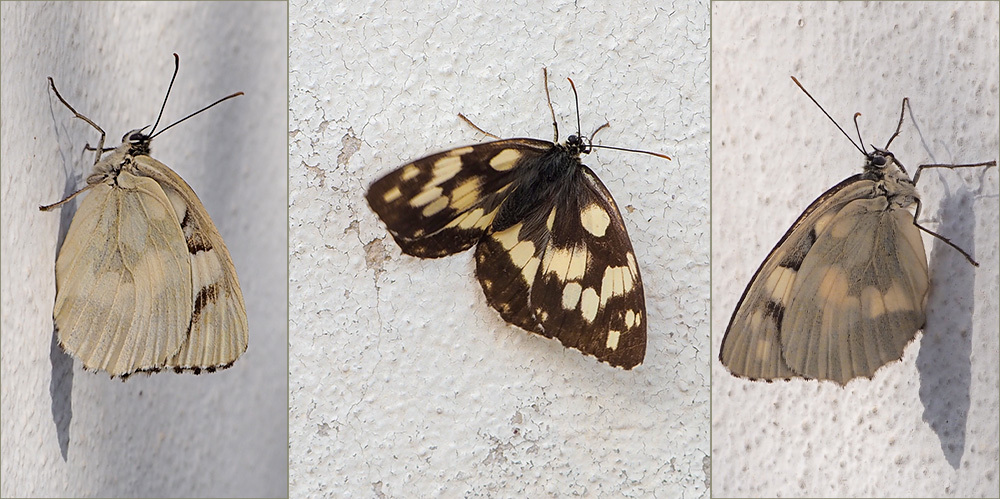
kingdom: Animalia
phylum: Arthropoda
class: Insecta
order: Lepidoptera
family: Nymphalidae
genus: Melanargia
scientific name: Melanargia galathea
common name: Marbled white
